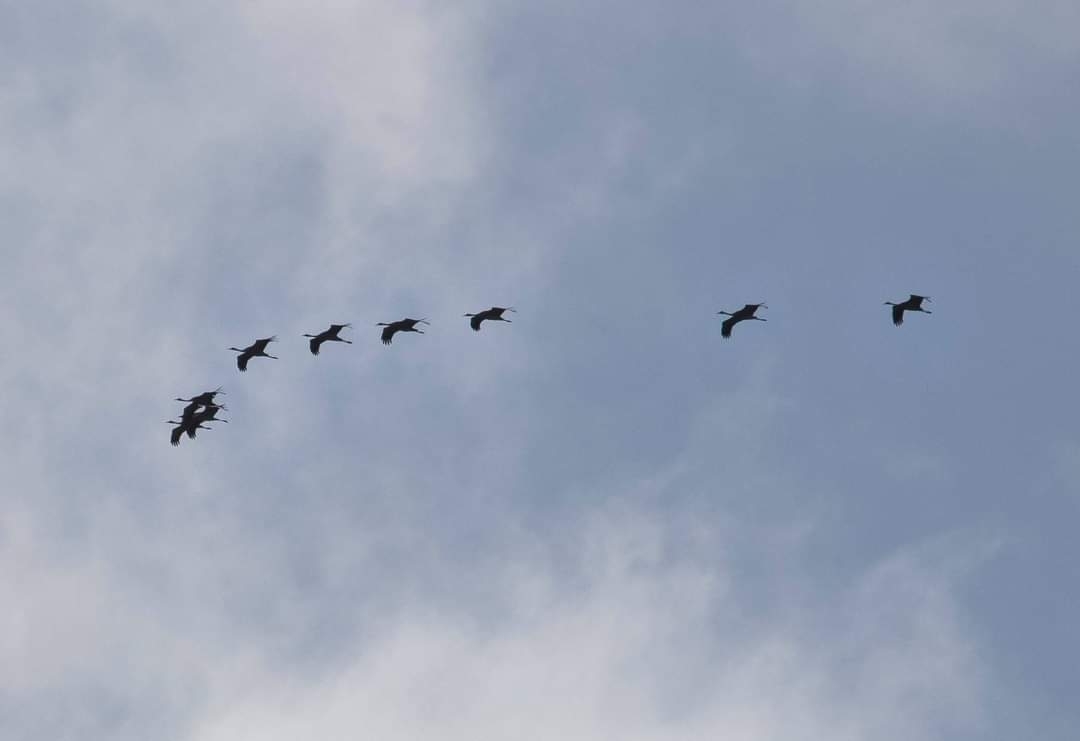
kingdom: Animalia
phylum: Chordata
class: Aves
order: Gruiformes
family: Gruidae
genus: Grus
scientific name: Grus grus
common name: Common crane
